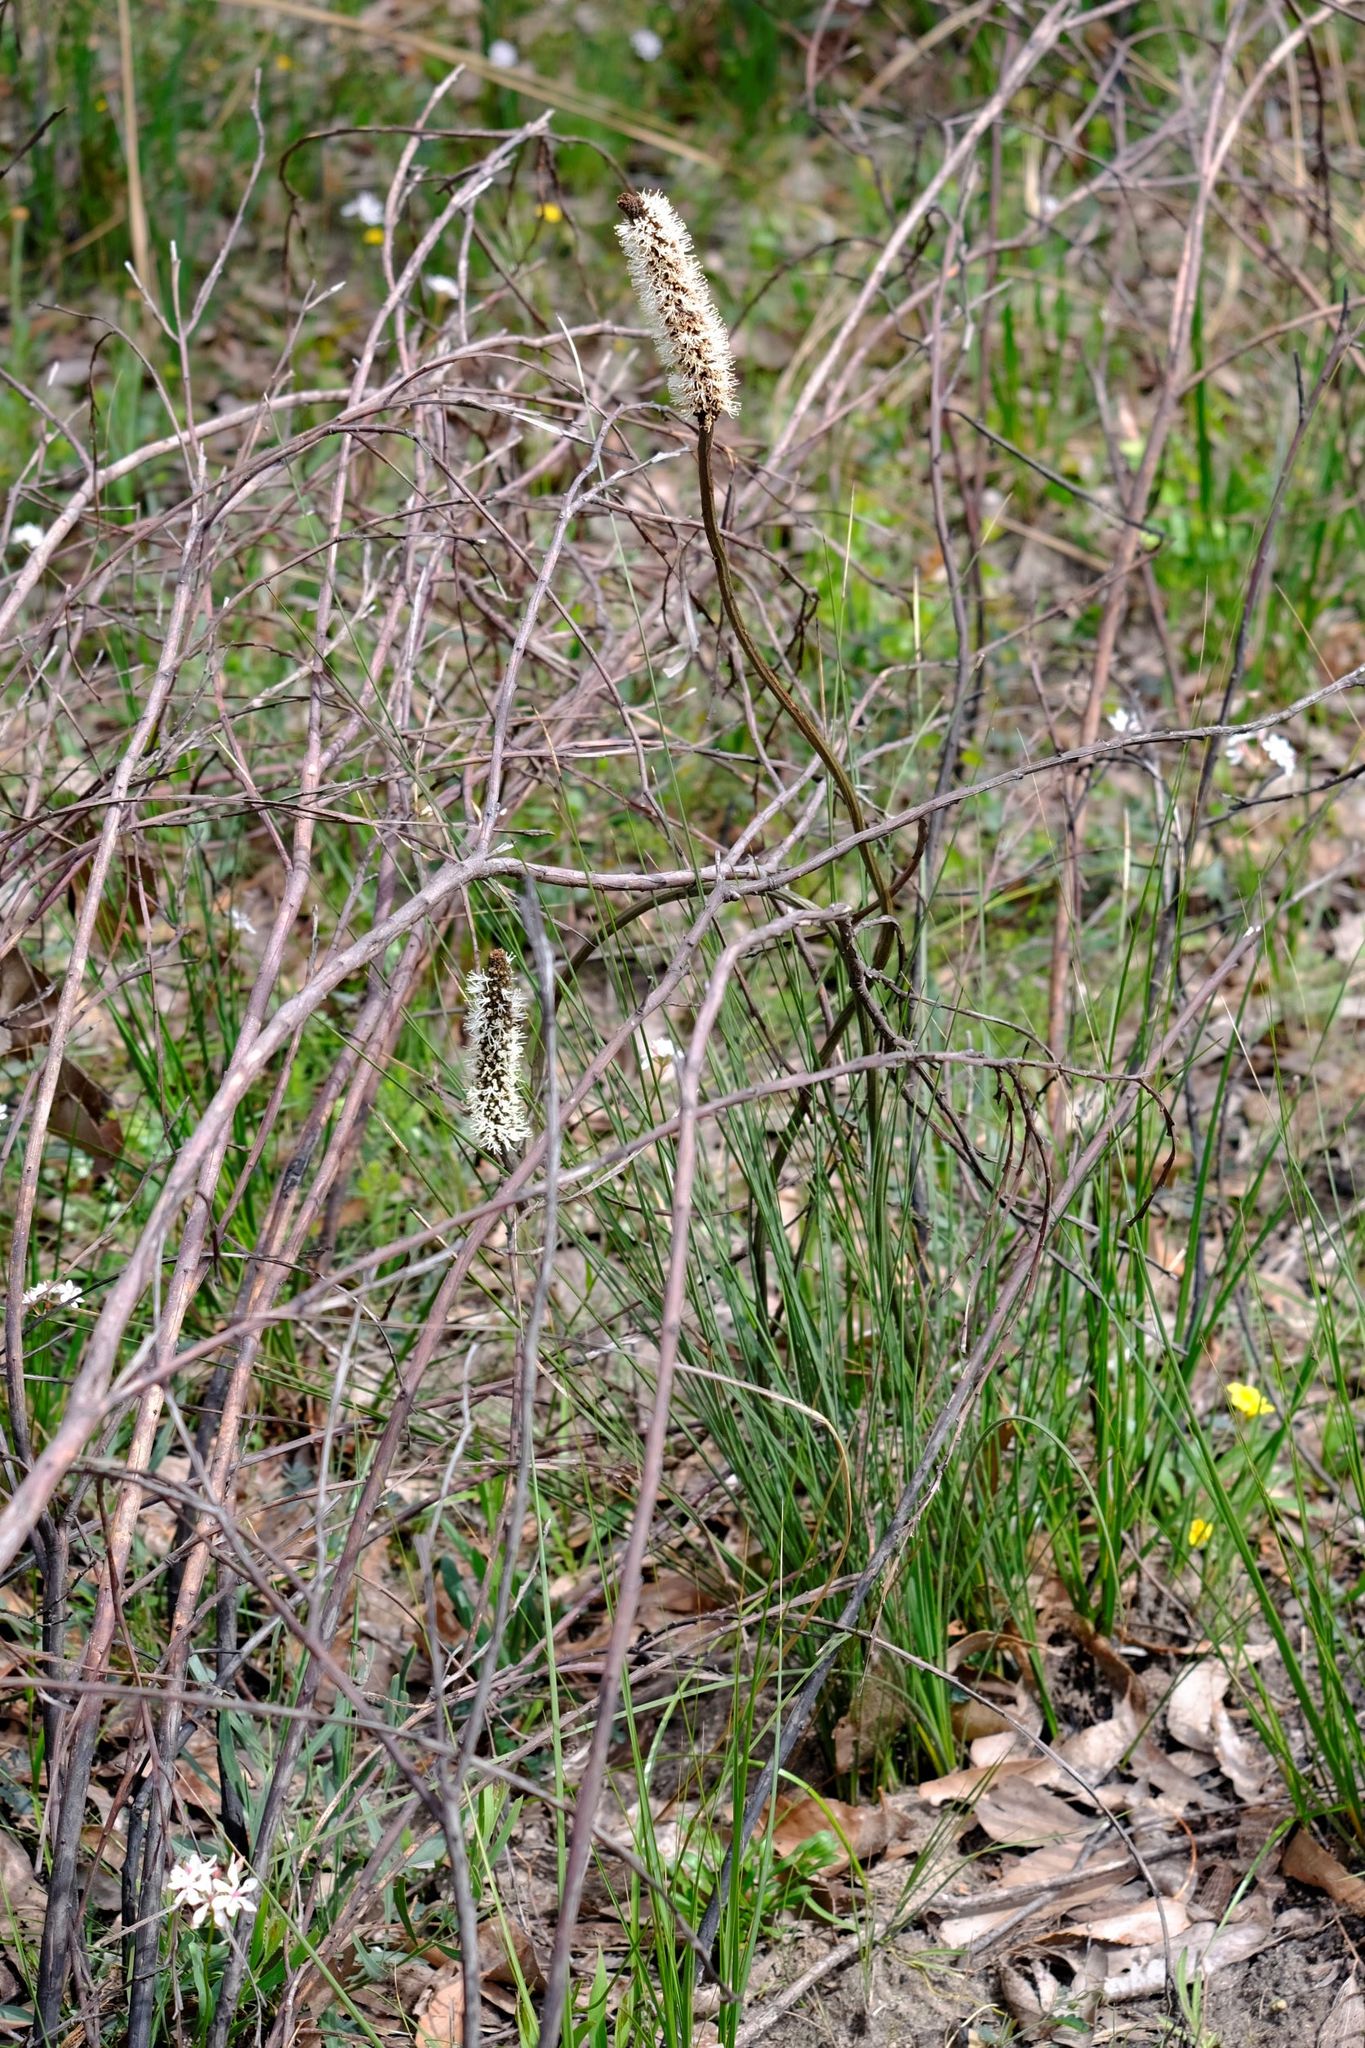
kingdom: Plantae
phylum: Tracheophyta
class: Liliopsida
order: Asparagales
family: Asphodelaceae
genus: Xanthorrhoea
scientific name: Xanthorrhoea minor
